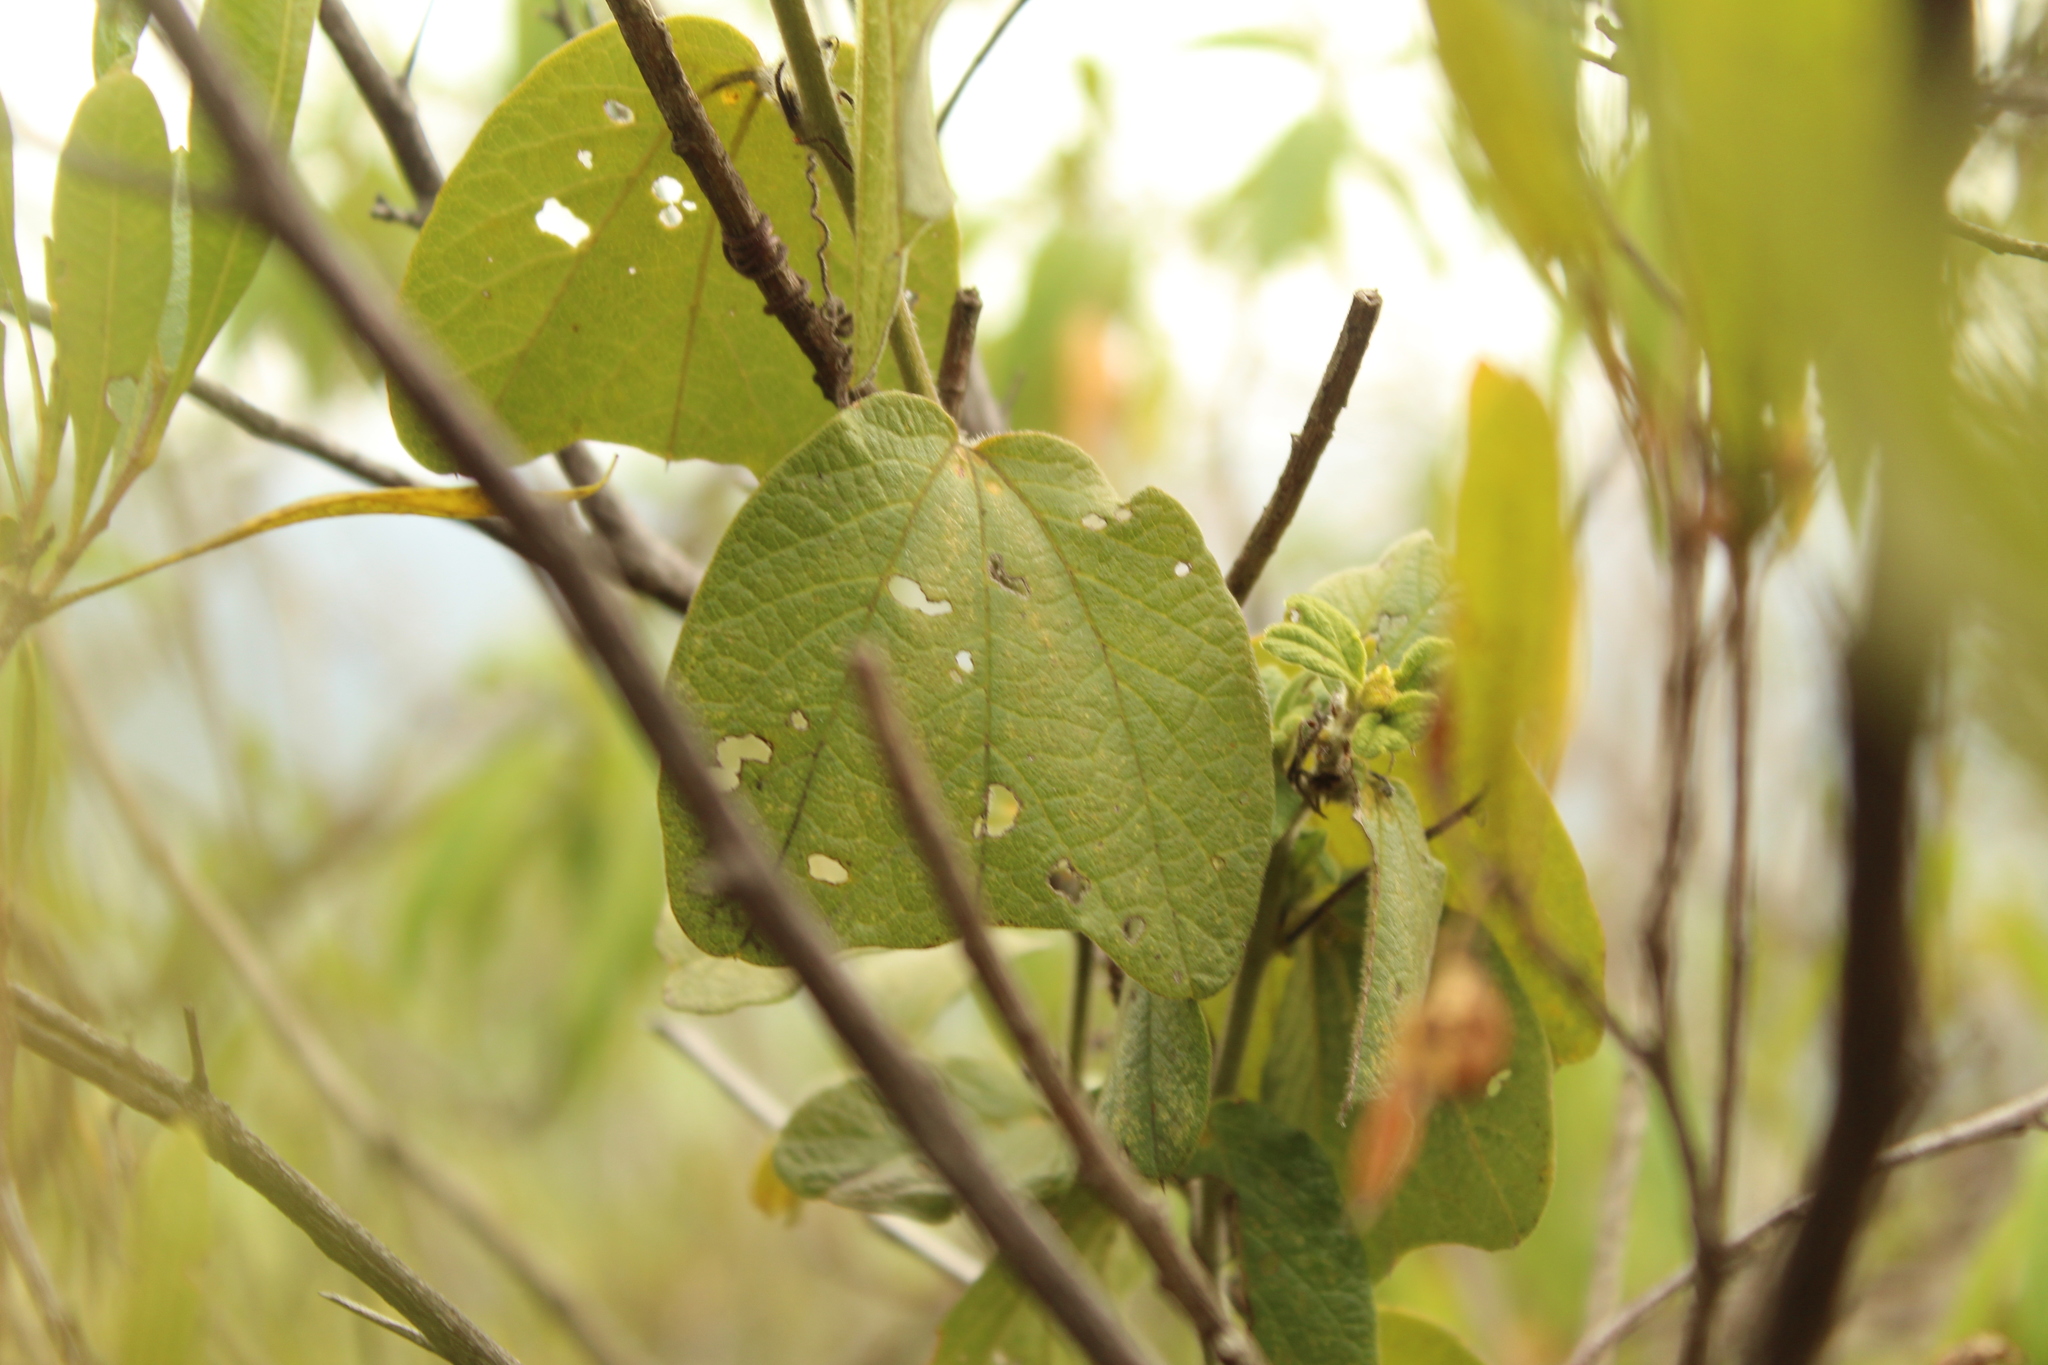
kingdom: Plantae
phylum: Tracheophyta
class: Magnoliopsida
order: Malpighiales
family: Passifloraceae
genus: Passiflora
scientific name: Passiflora bogotensis
